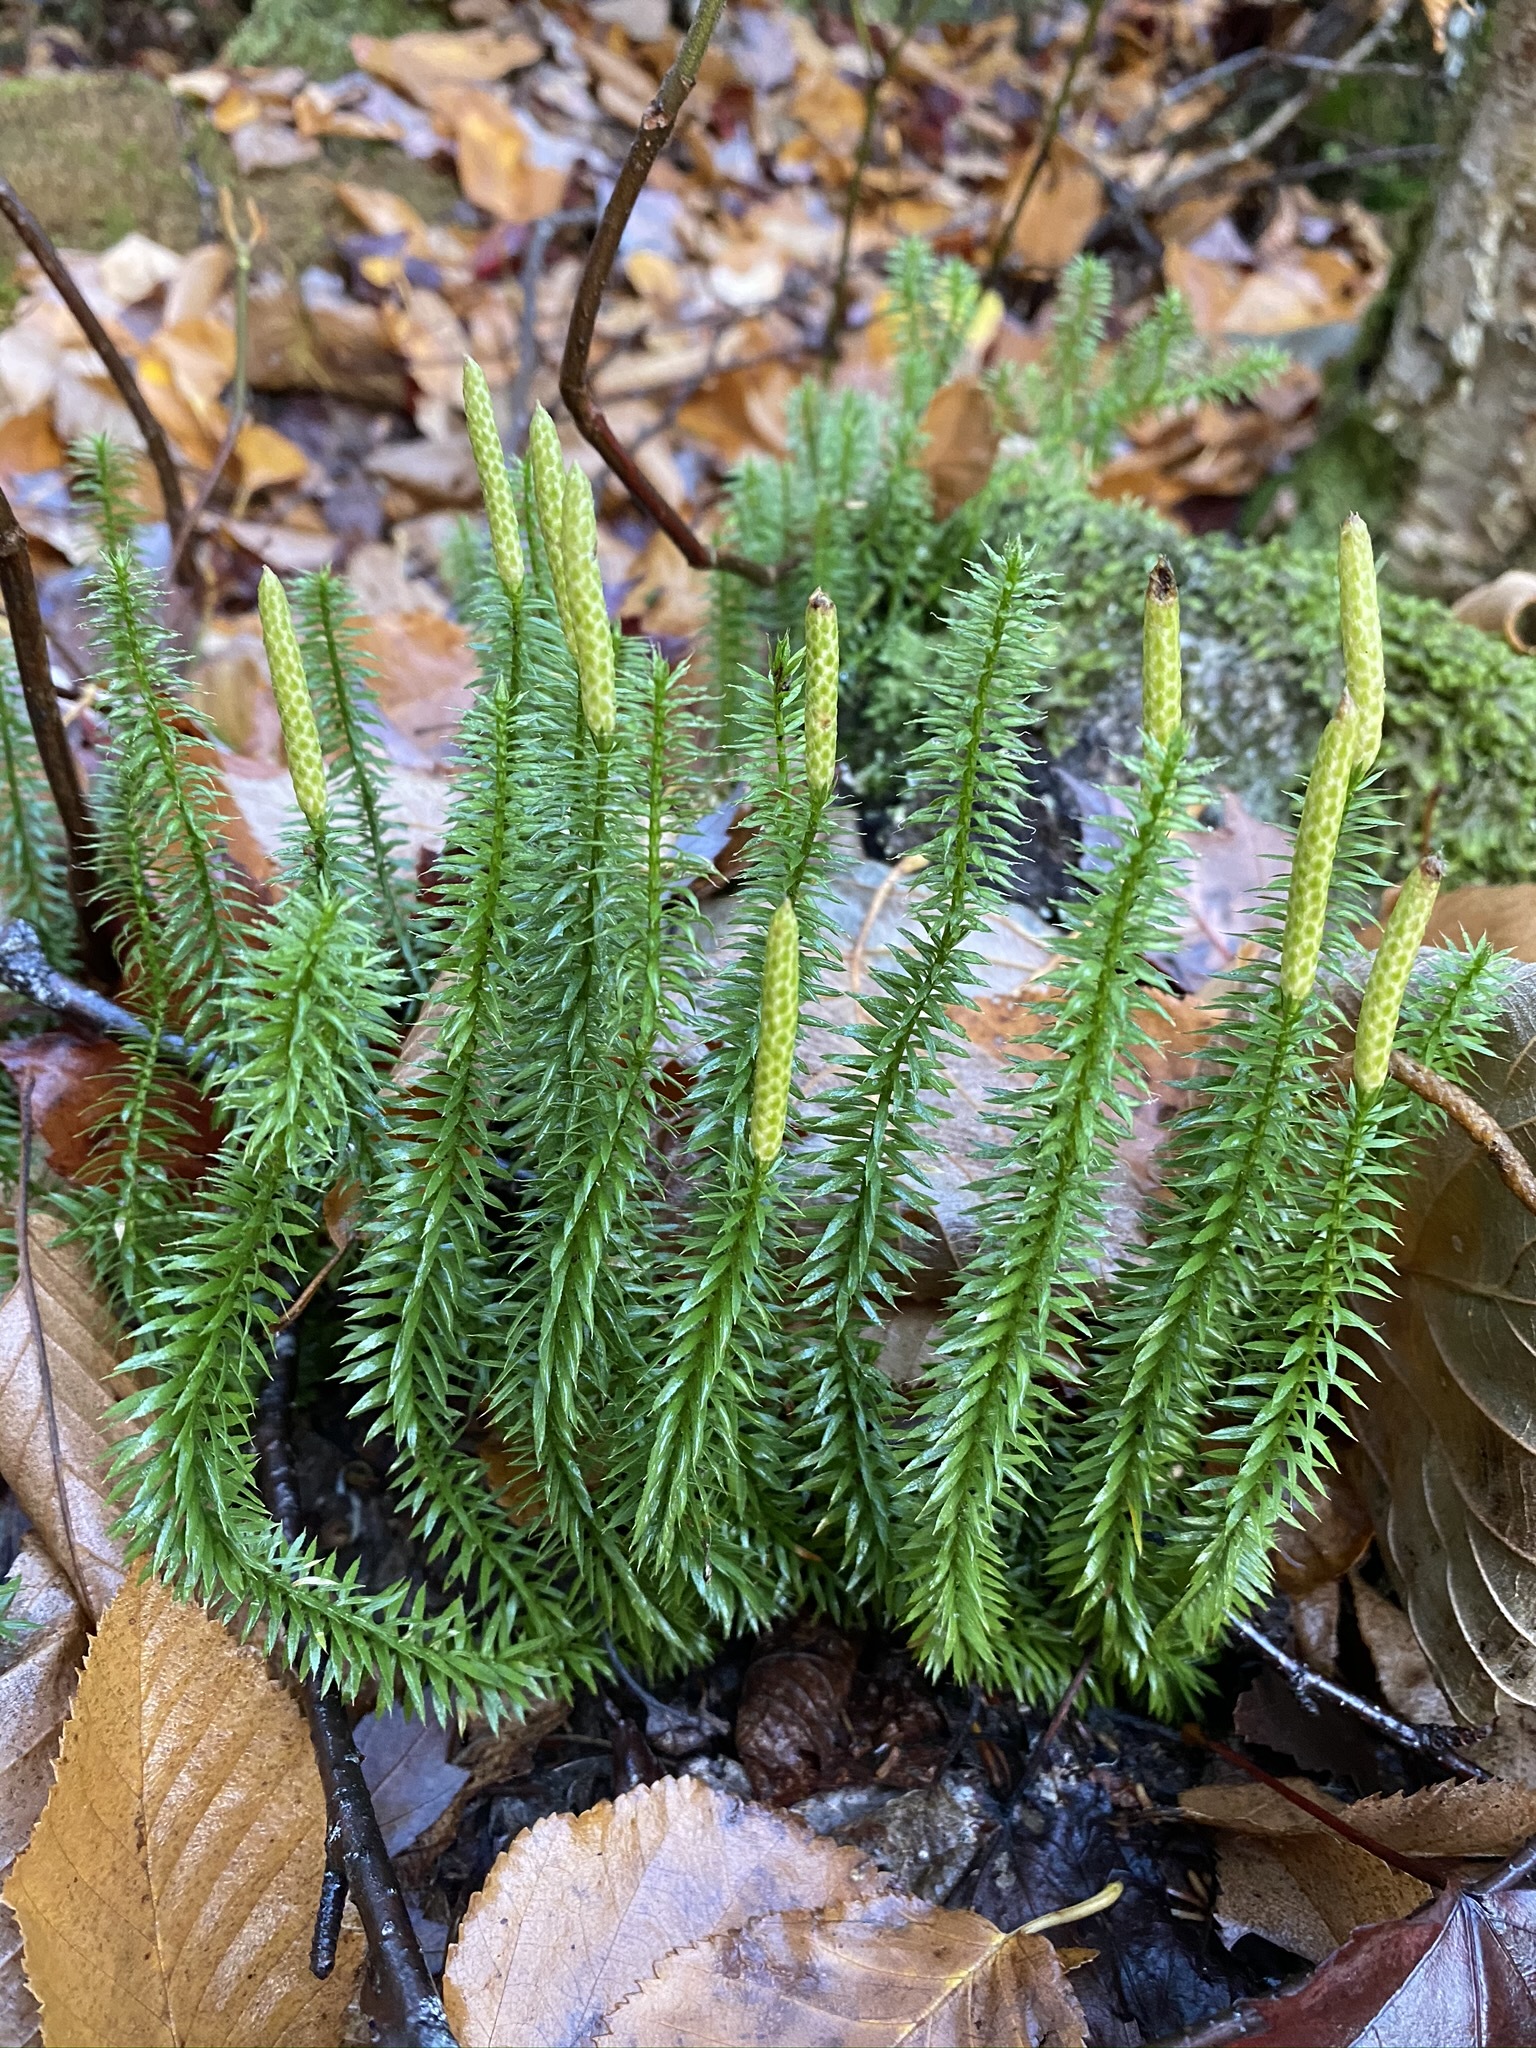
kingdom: Plantae
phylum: Tracheophyta
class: Lycopodiopsida
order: Lycopodiales
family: Lycopodiaceae
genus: Spinulum
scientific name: Spinulum annotinum
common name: Interrupted club-moss
